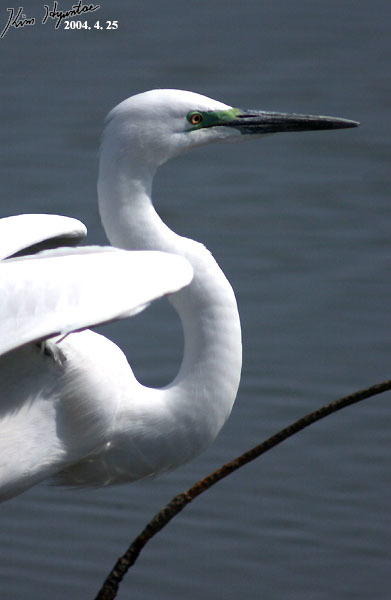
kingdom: Animalia
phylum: Chordata
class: Aves
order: Pelecaniformes
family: Ardeidae
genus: Ardea
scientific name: Ardea modesta
